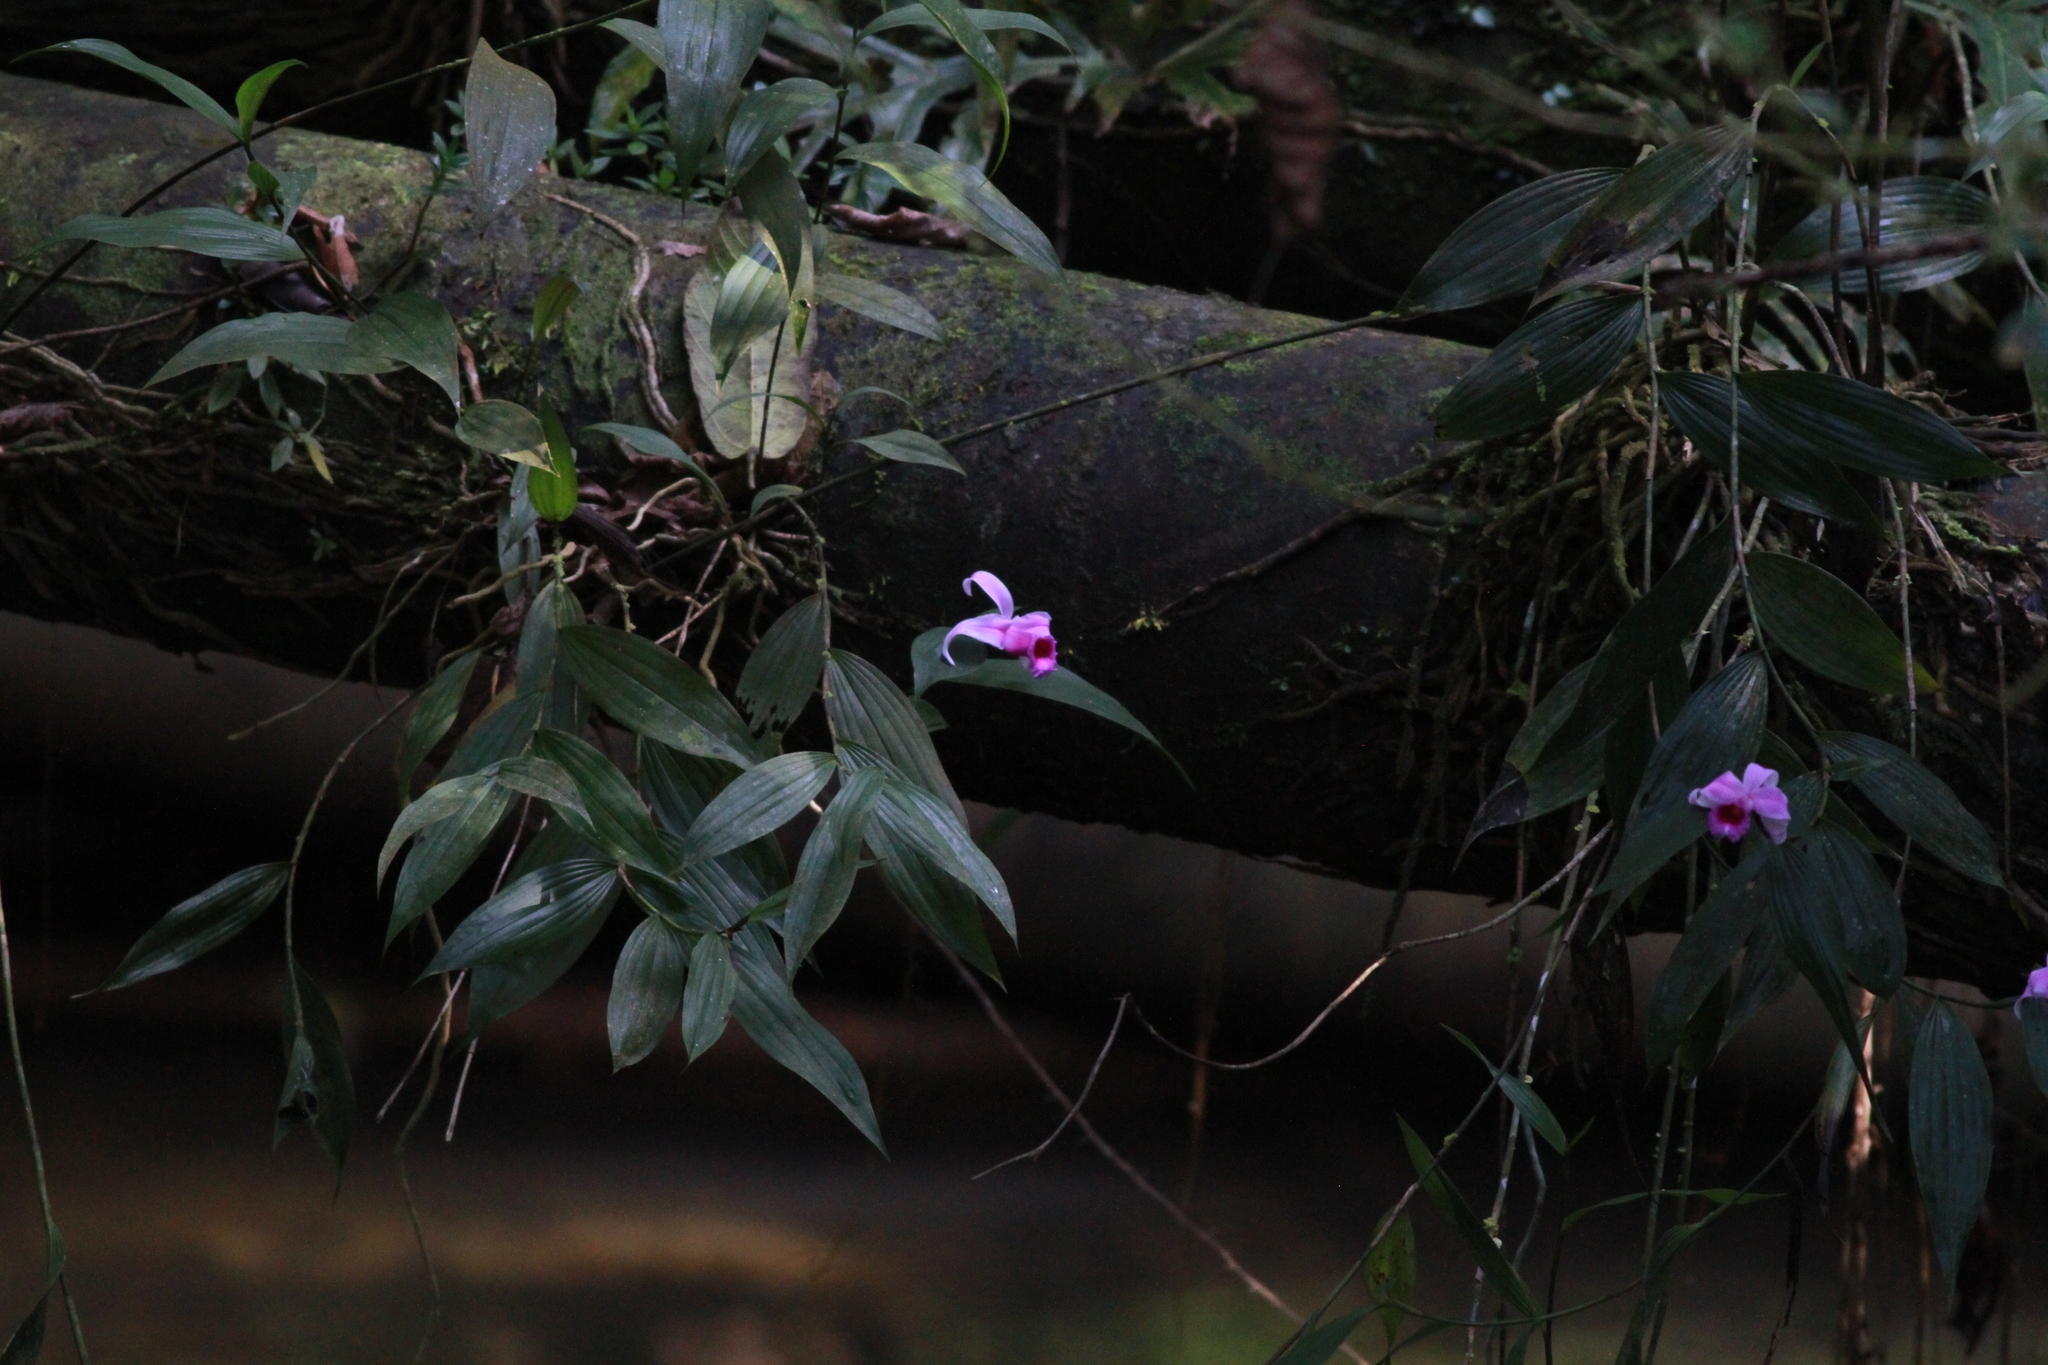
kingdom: Plantae
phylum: Tracheophyta
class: Liliopsida
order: Asparagales
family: Orchidaceae
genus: Sobralia
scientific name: Sobralia decora
